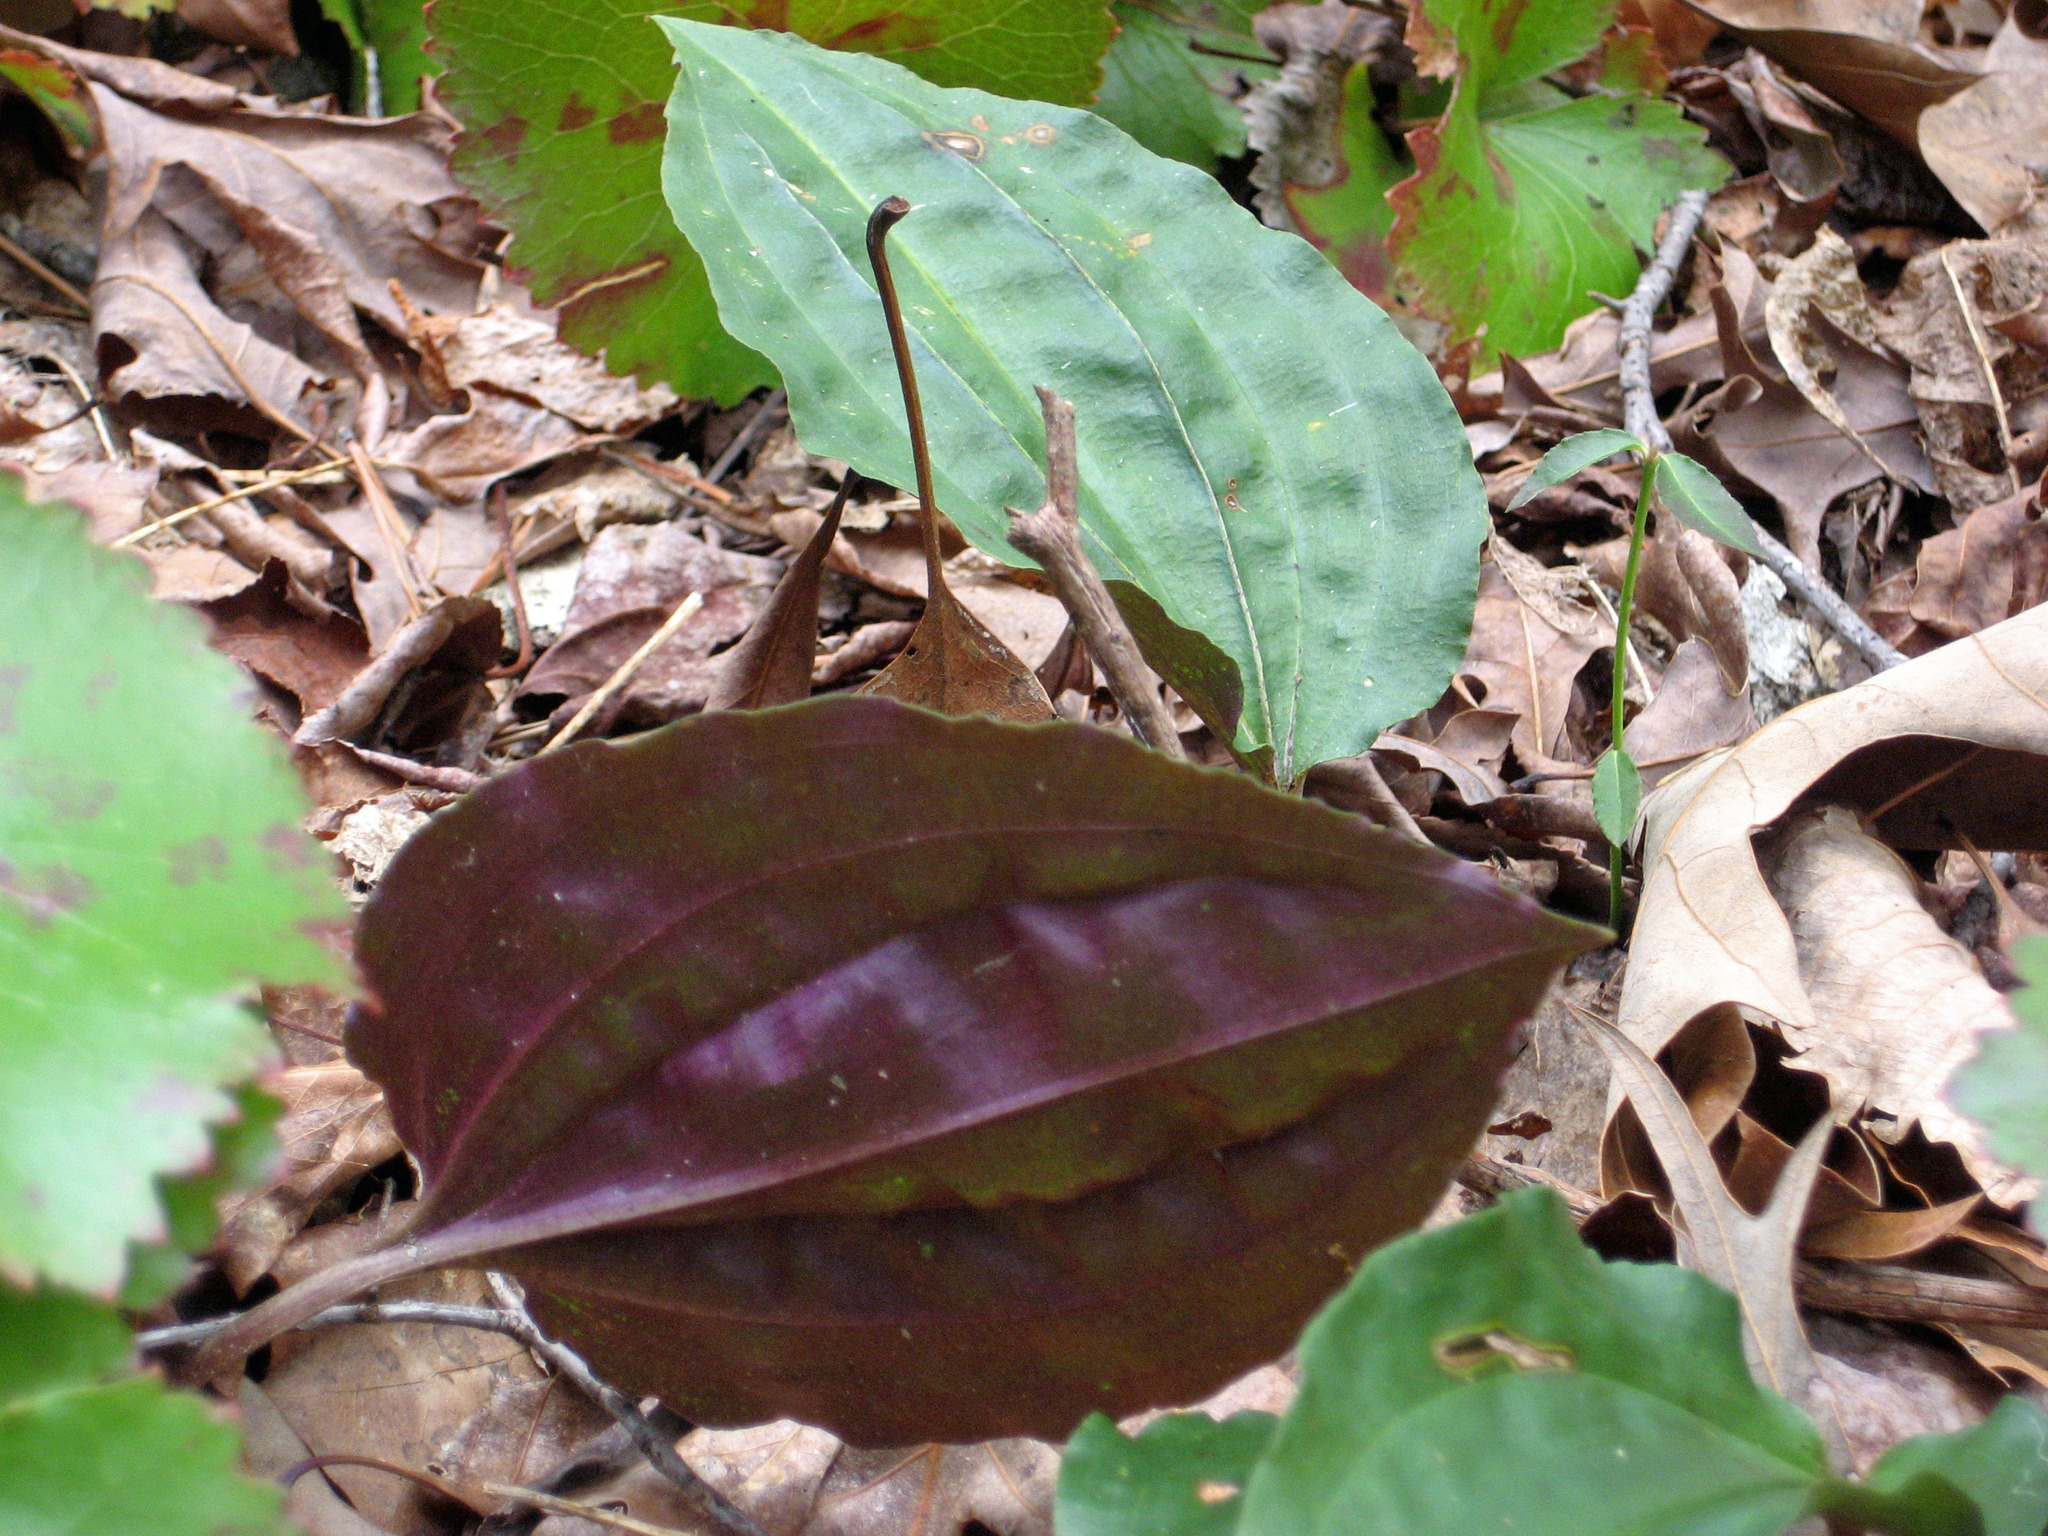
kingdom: Plantae
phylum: Tracheophyta
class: Liliopsida
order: Asparagales
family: Orchidaceae
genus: Tipularia
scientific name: Tipularia discolor
